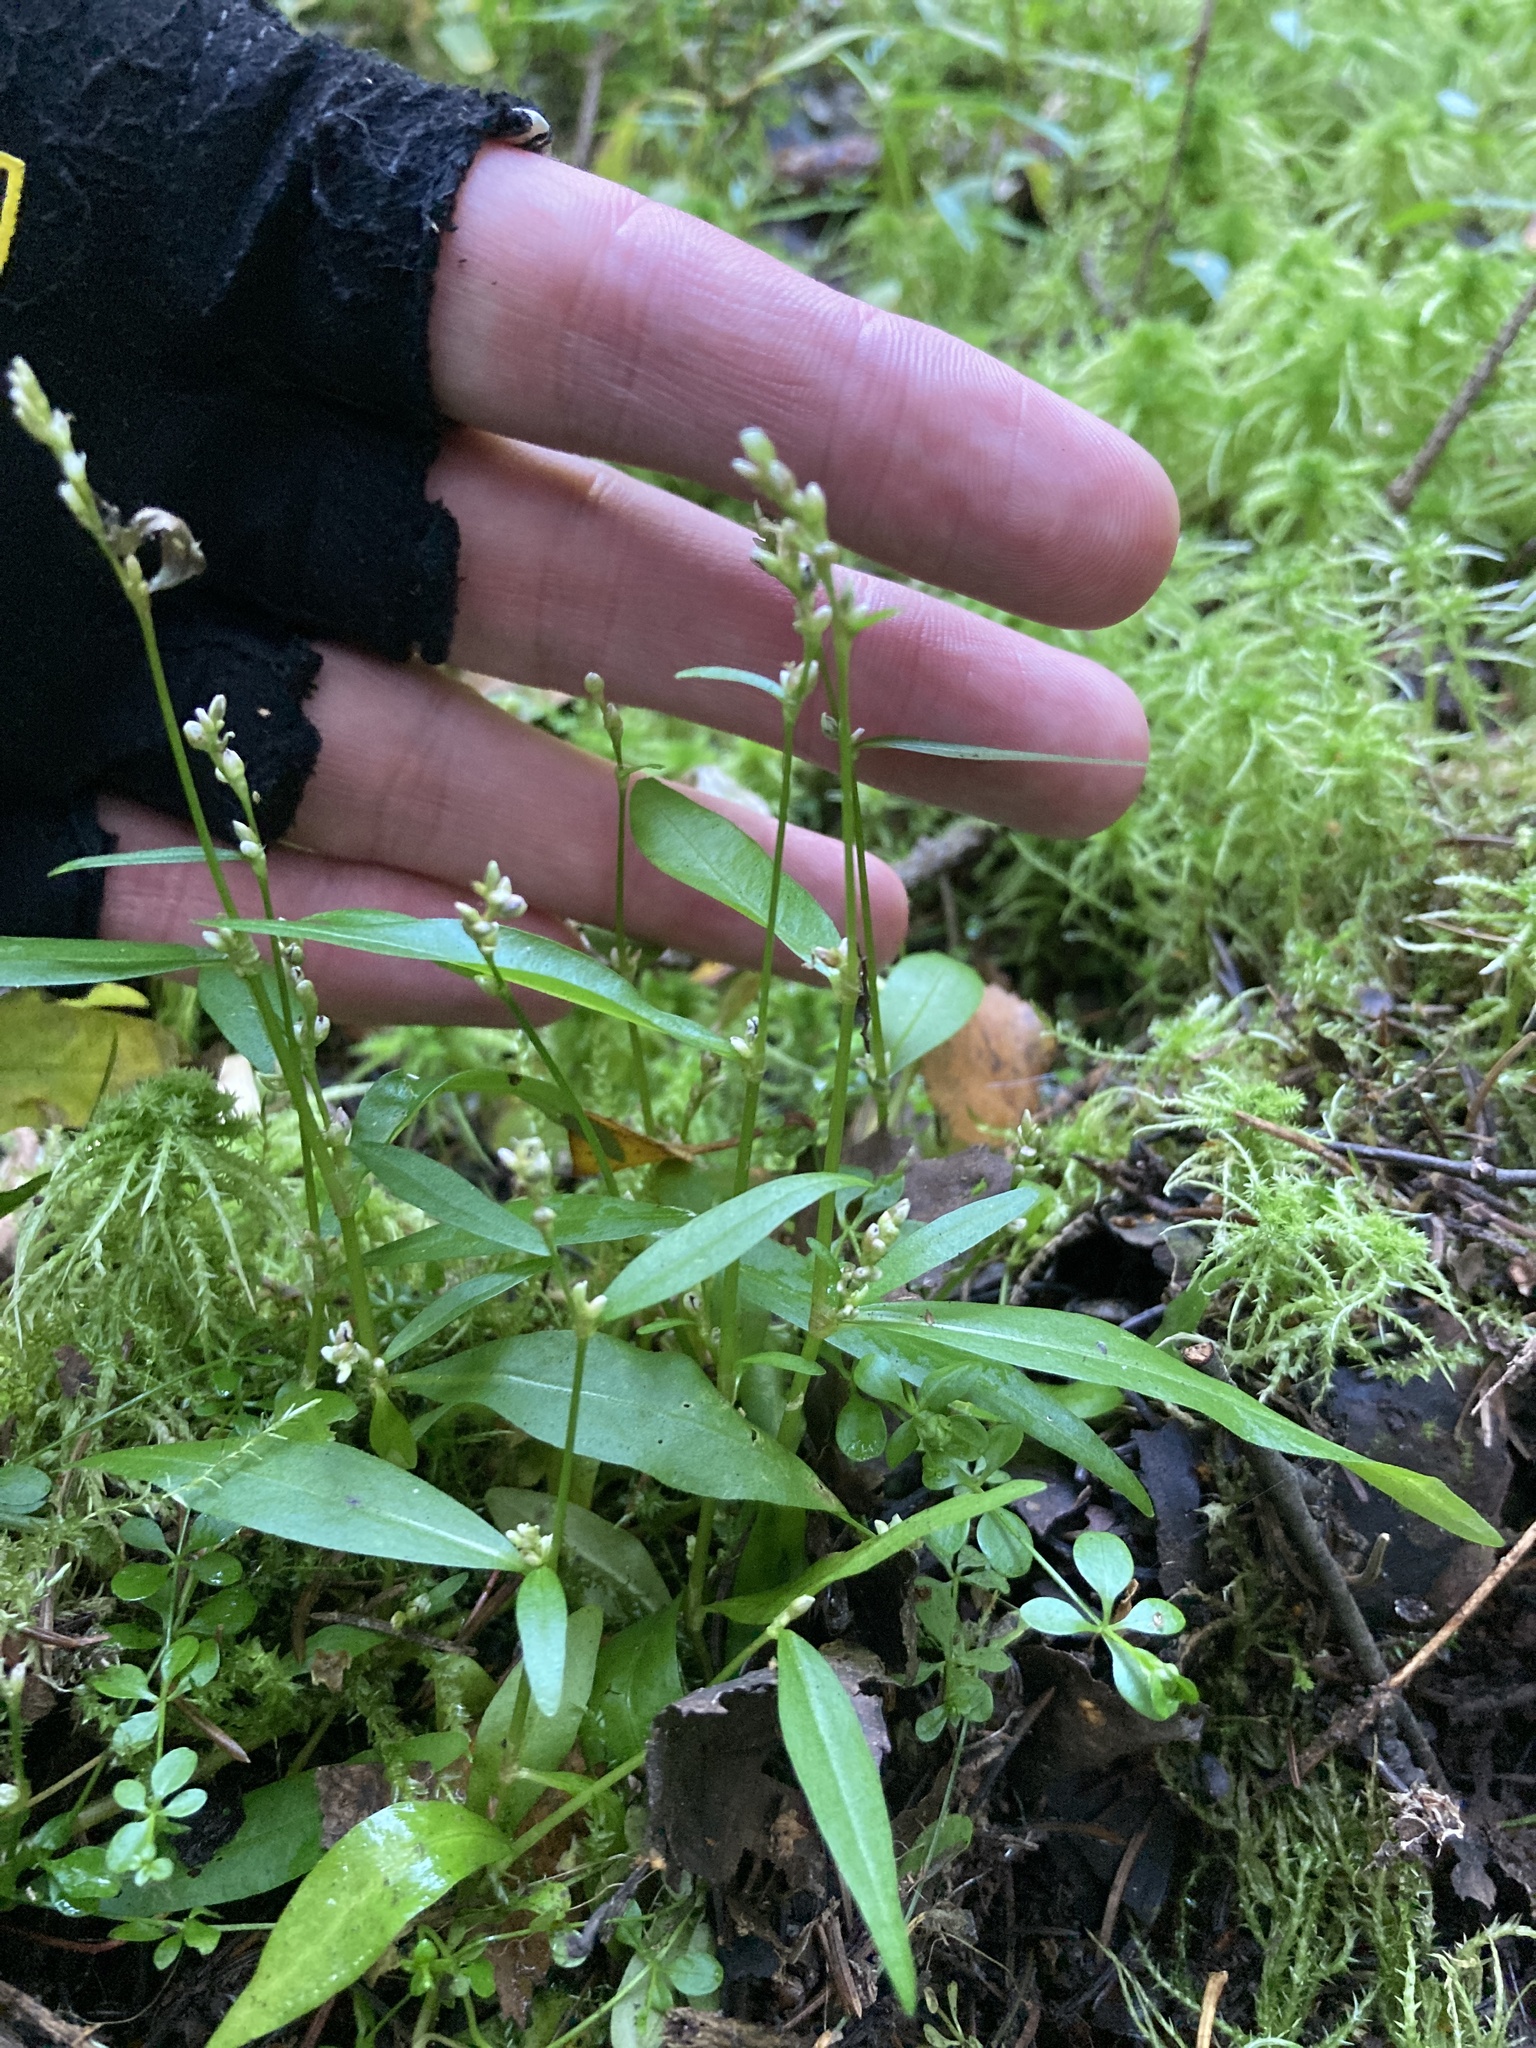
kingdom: Plantae
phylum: Tracheophyta
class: Magnoliopsida
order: Caryophyllales
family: Polygonaceae
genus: Persicaria
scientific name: Persicaria minor
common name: Small water-pepper
